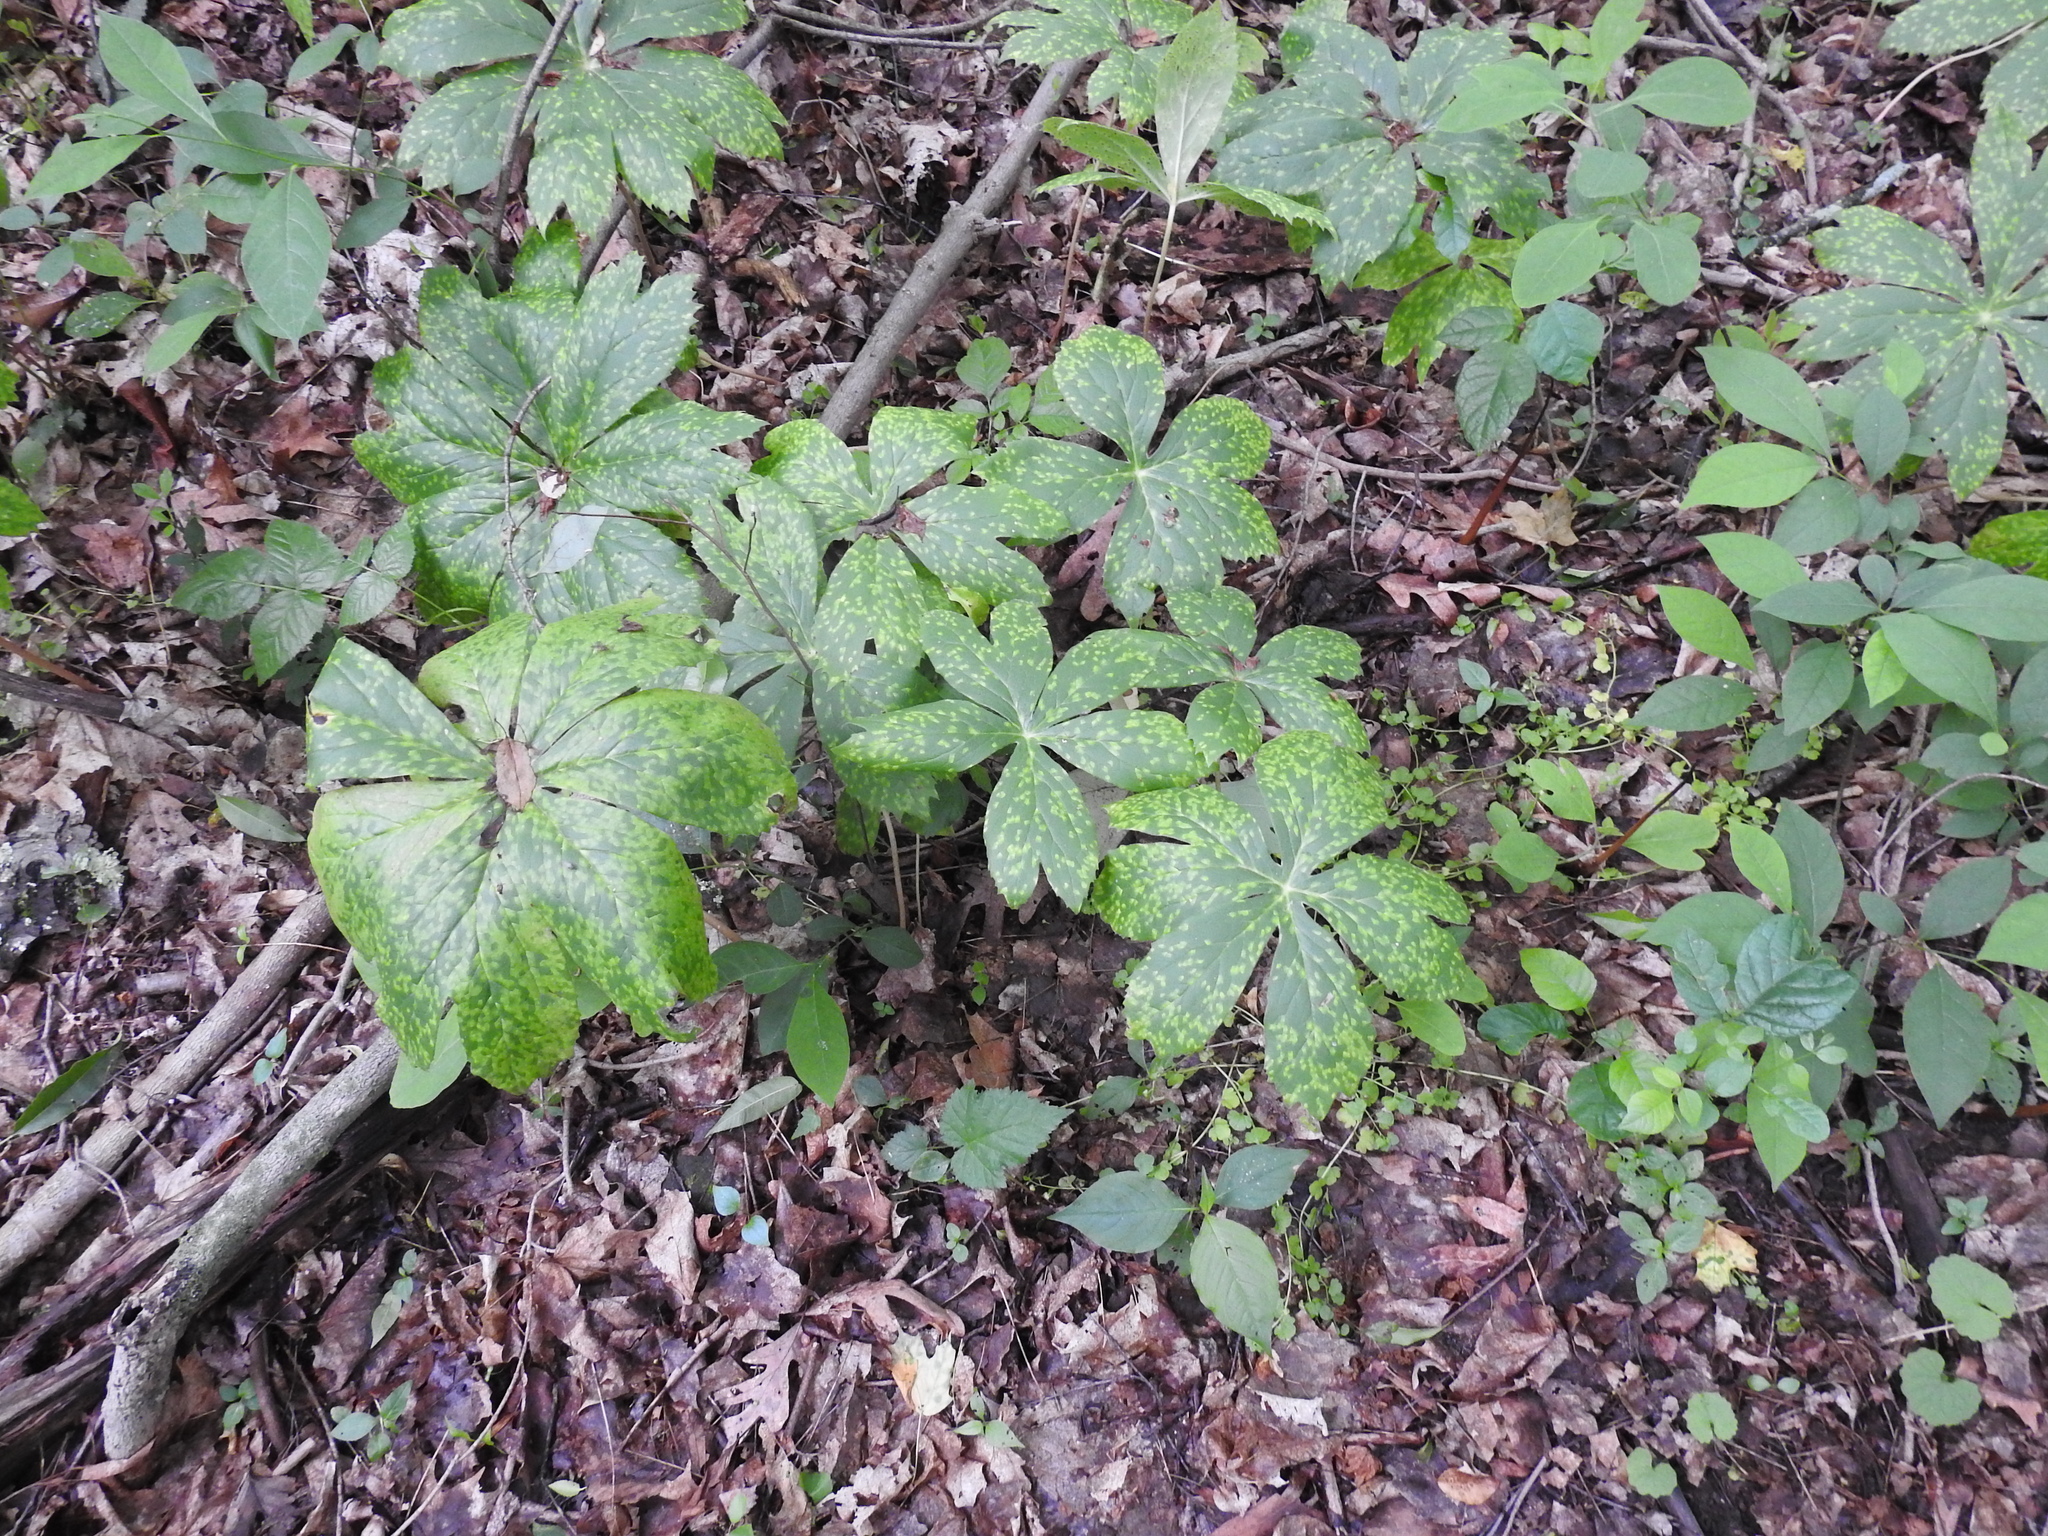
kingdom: Fungi
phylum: Basidiomycota
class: Pucciniomycetes
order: Pucciniales
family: Pucciniaceae
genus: Puccinia
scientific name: Puccinia podophylli
